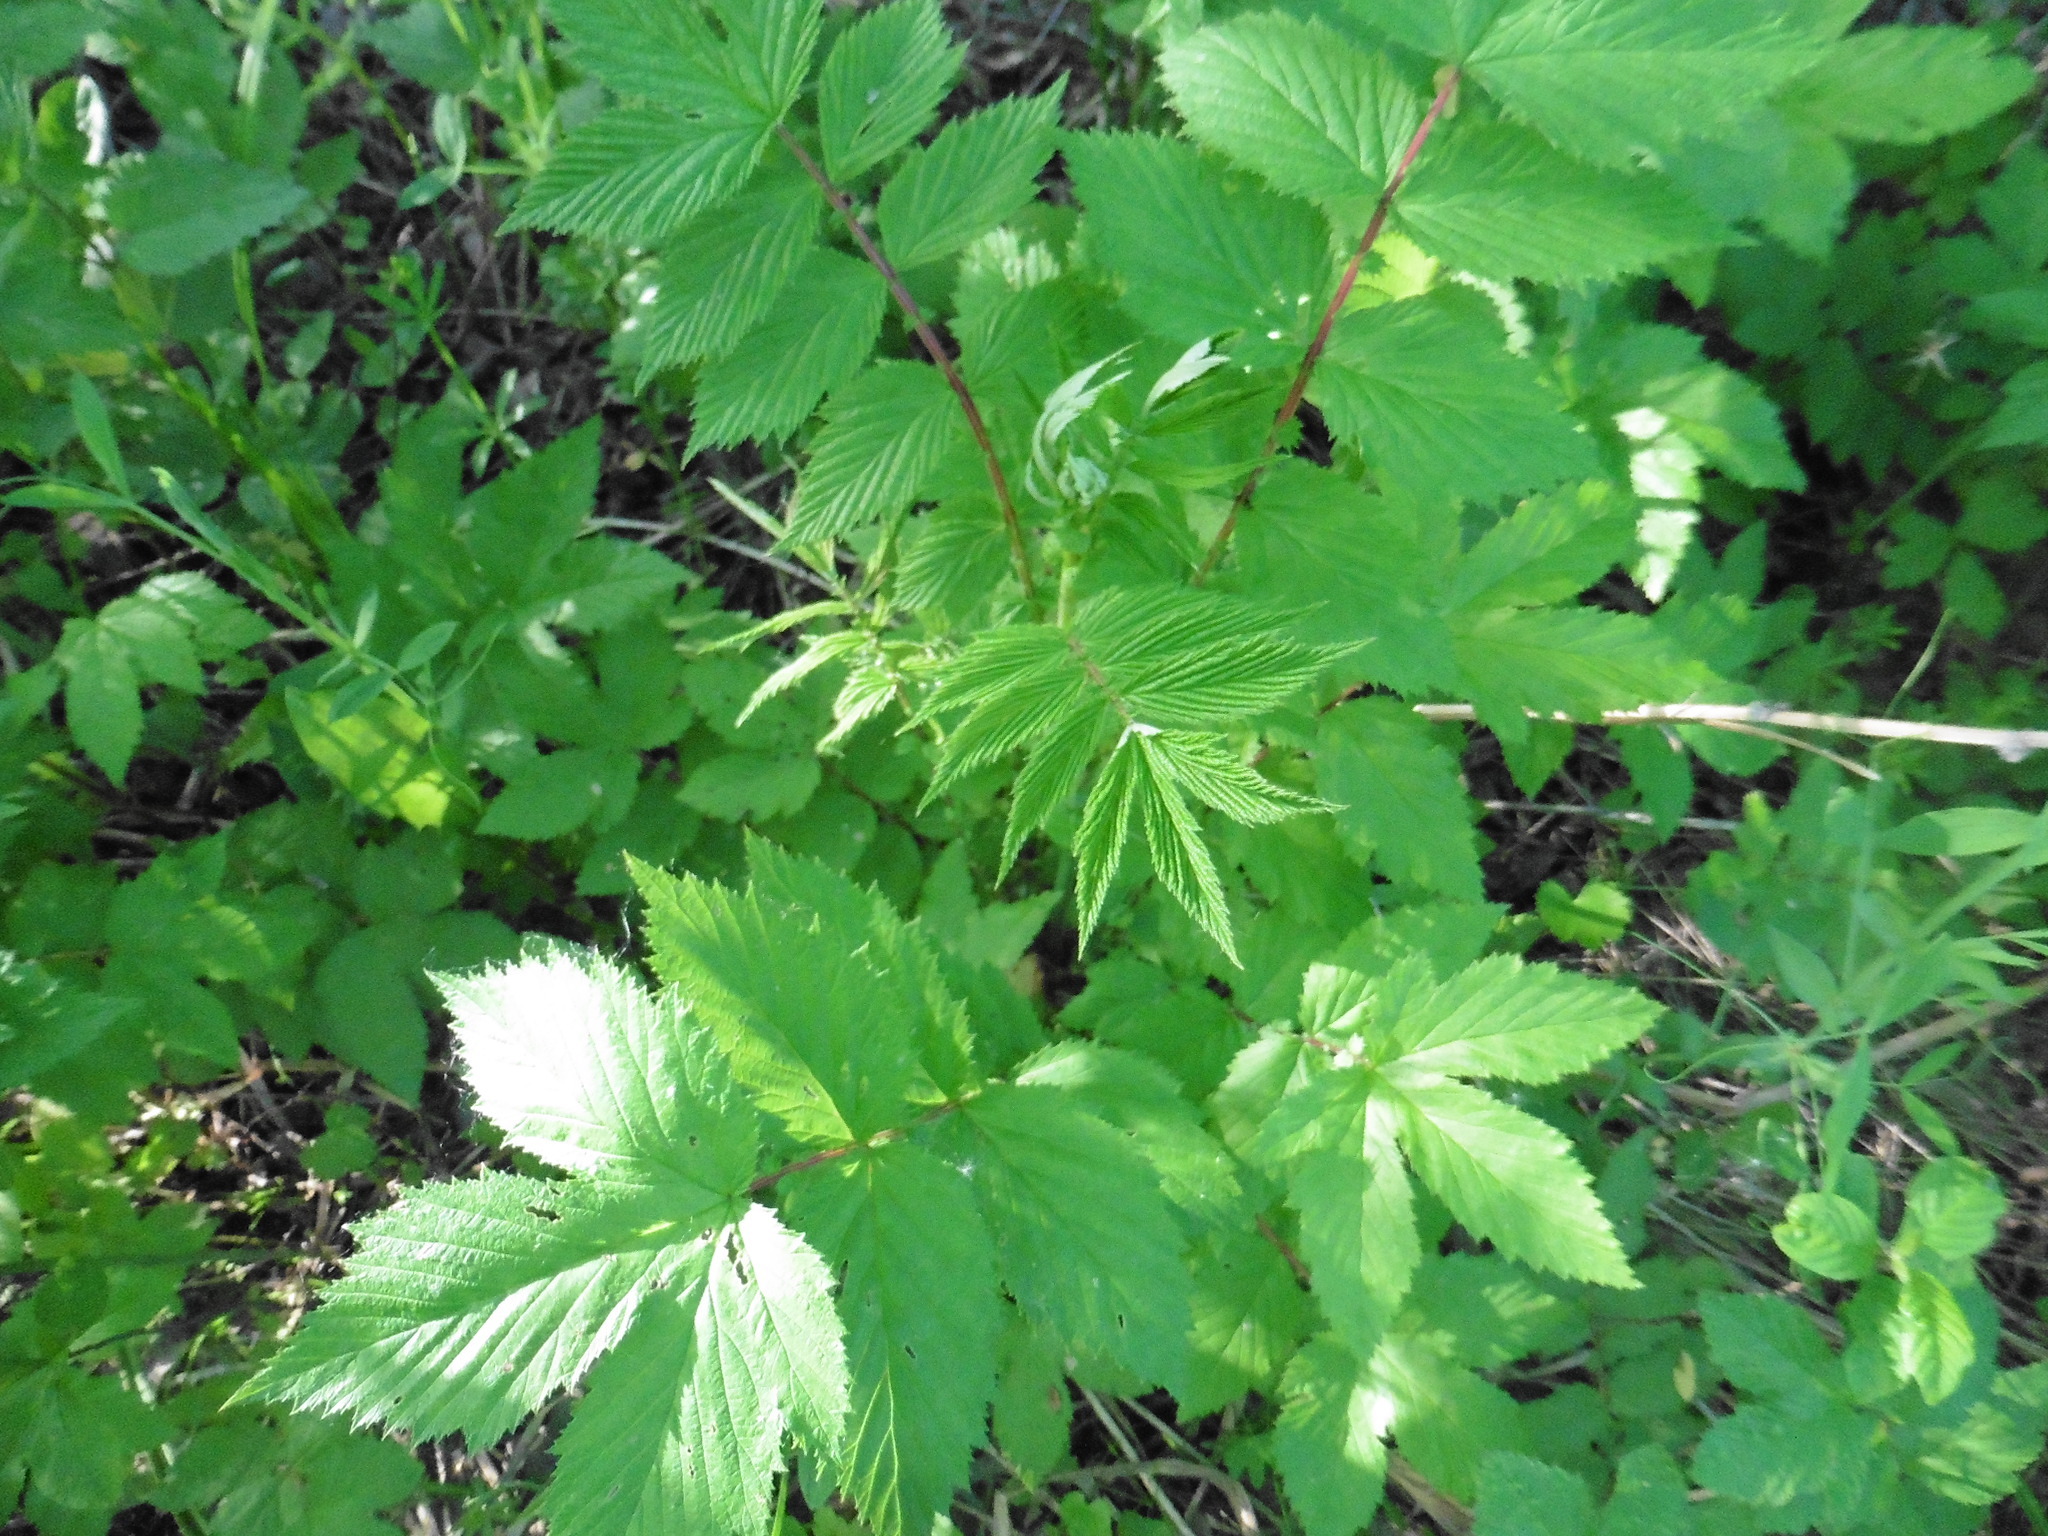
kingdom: Plantae
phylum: Tracheophyta
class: Magnoliopsida
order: Rosales
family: Rosaceae
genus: Filipendula
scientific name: Filipendula ulmaria
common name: Meadowsweet
